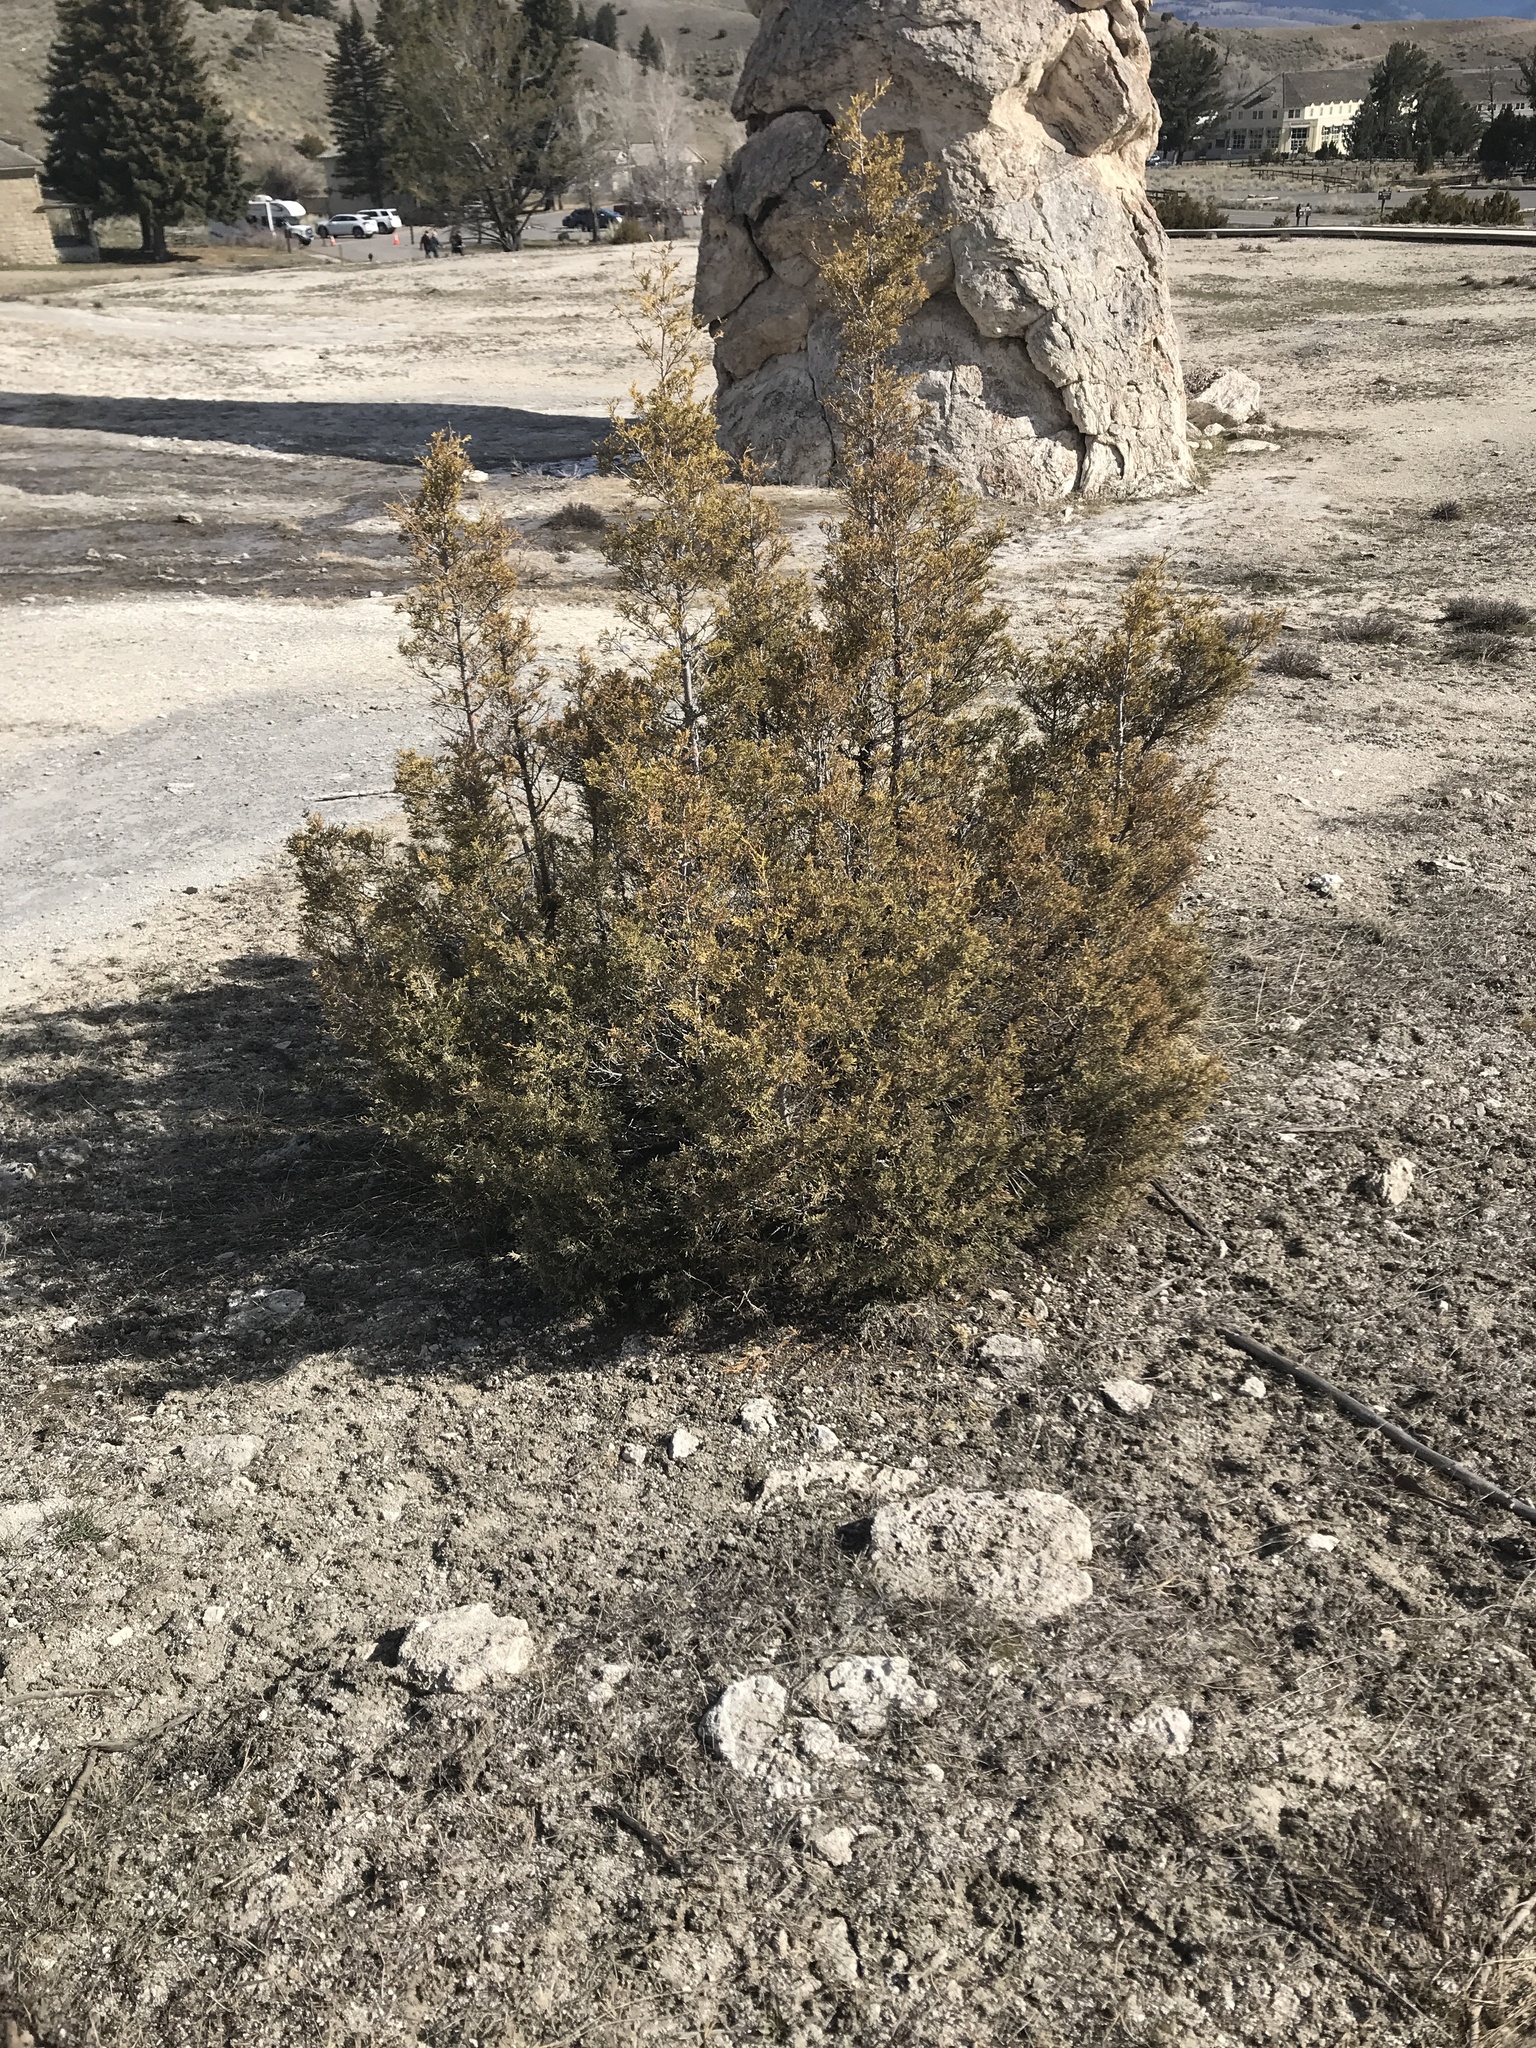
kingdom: Plantae
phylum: Tracheophyta
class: Pinopsida
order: Pinales
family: Cupressaceae
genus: Juniperus
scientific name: Juniperus scopulorum
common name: Rocky mountain juniper
